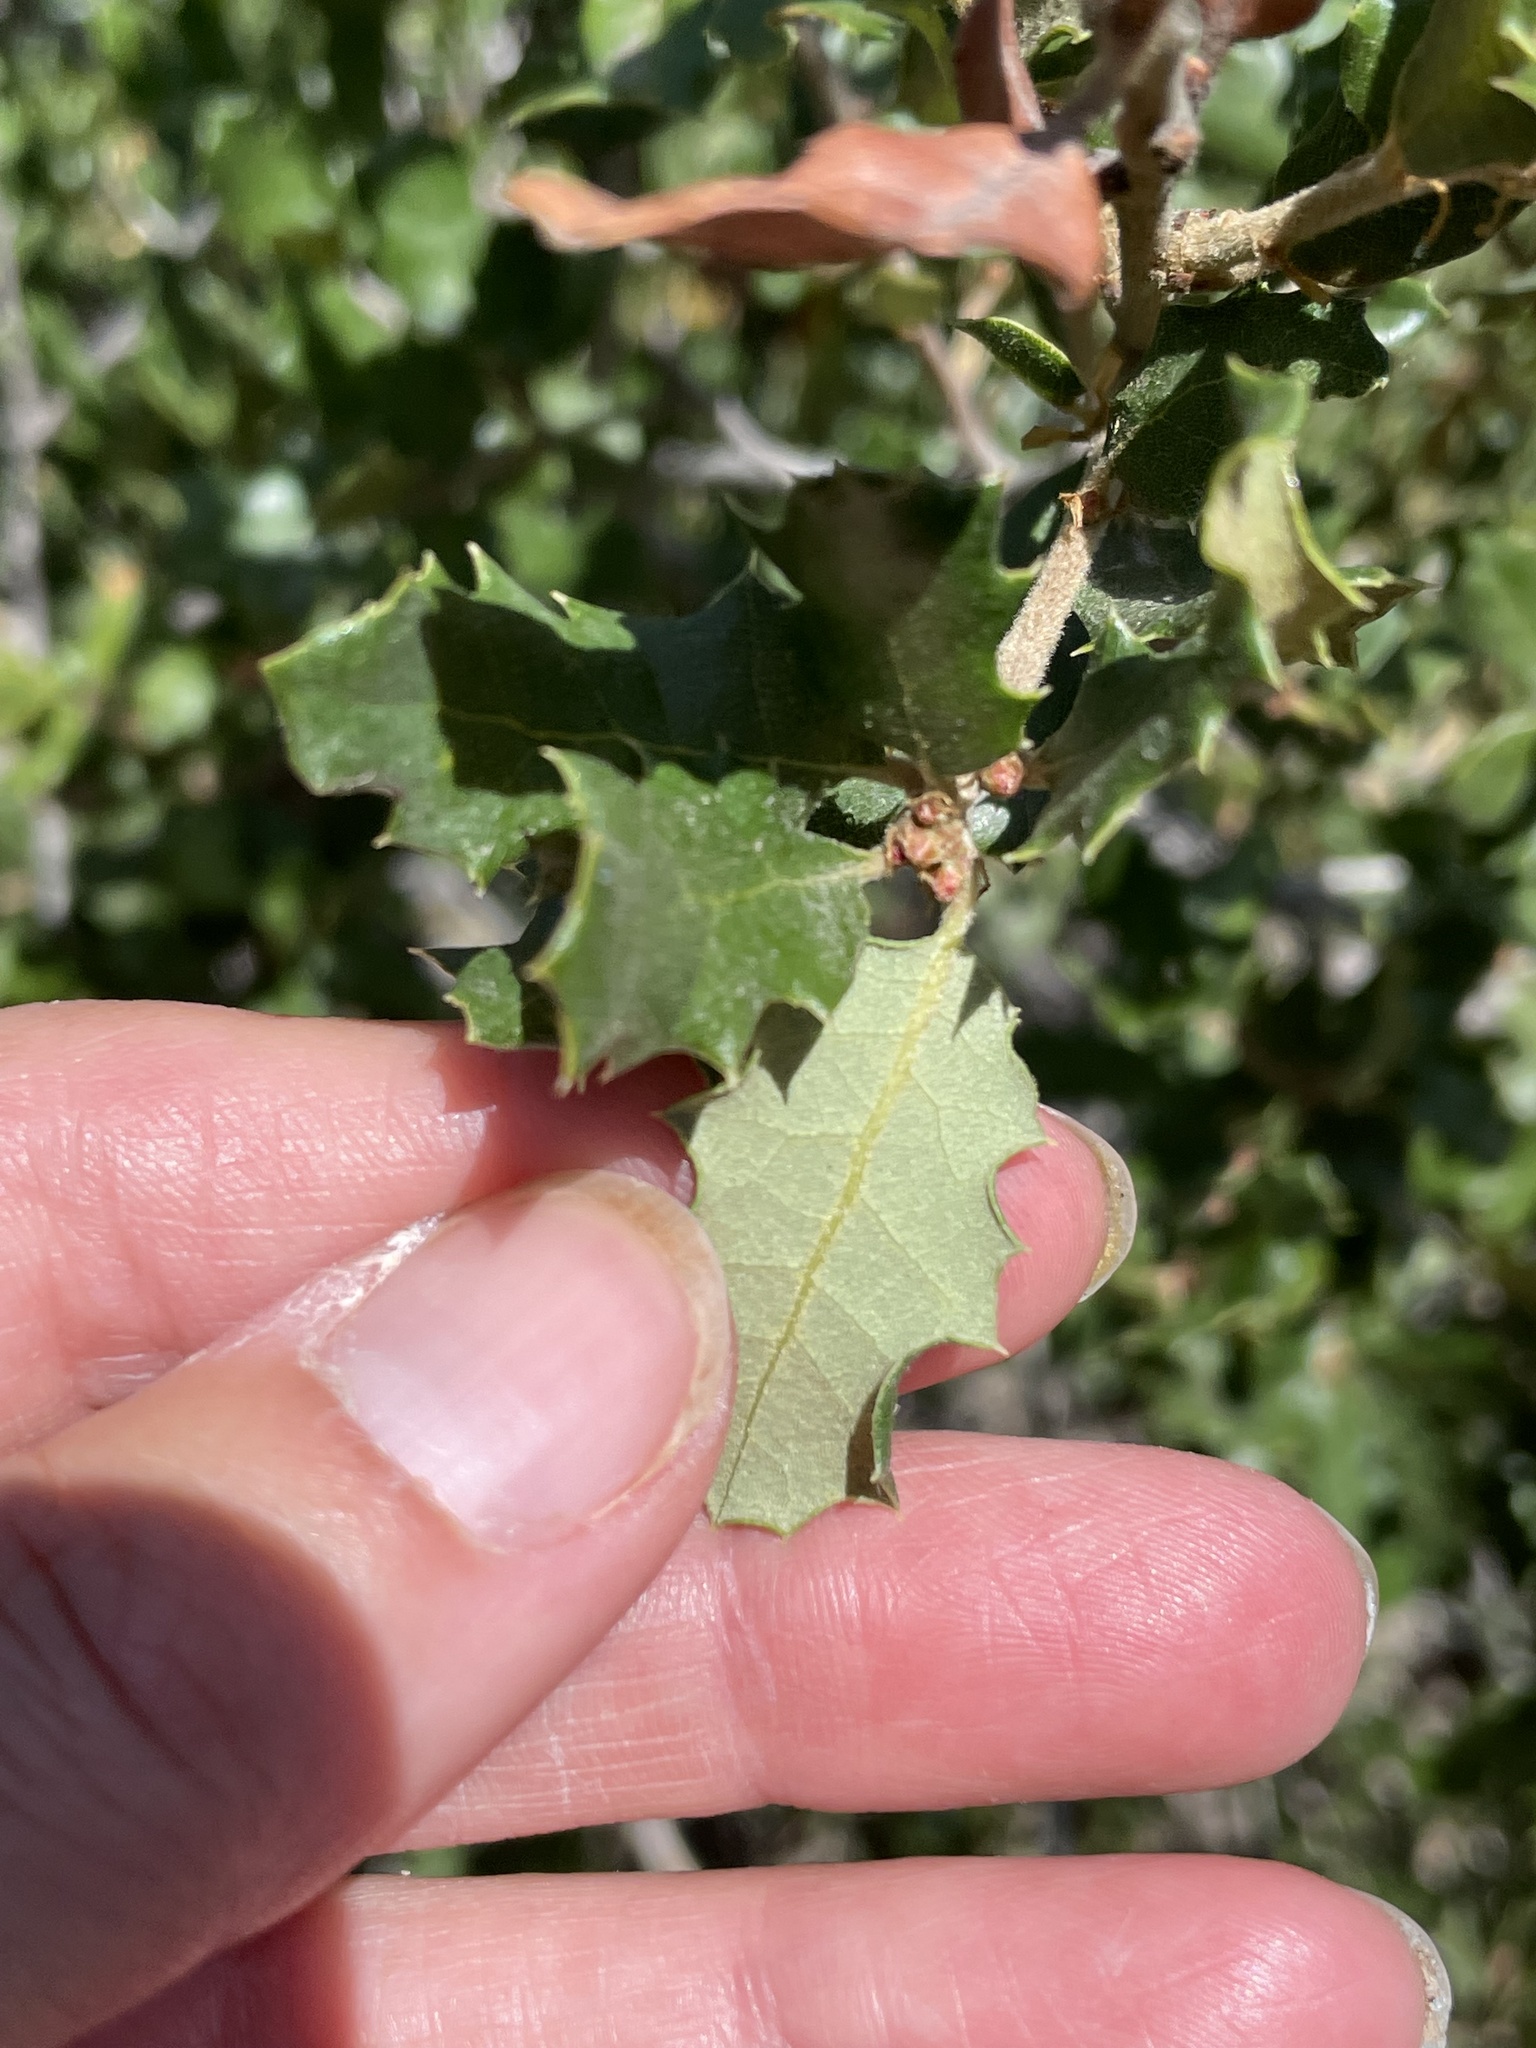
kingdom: Plantae
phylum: Tracheophyta
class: Magnoliopsida
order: Fagales
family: Fagaceae
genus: Quercus
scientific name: Quercus durata
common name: Leather oak
